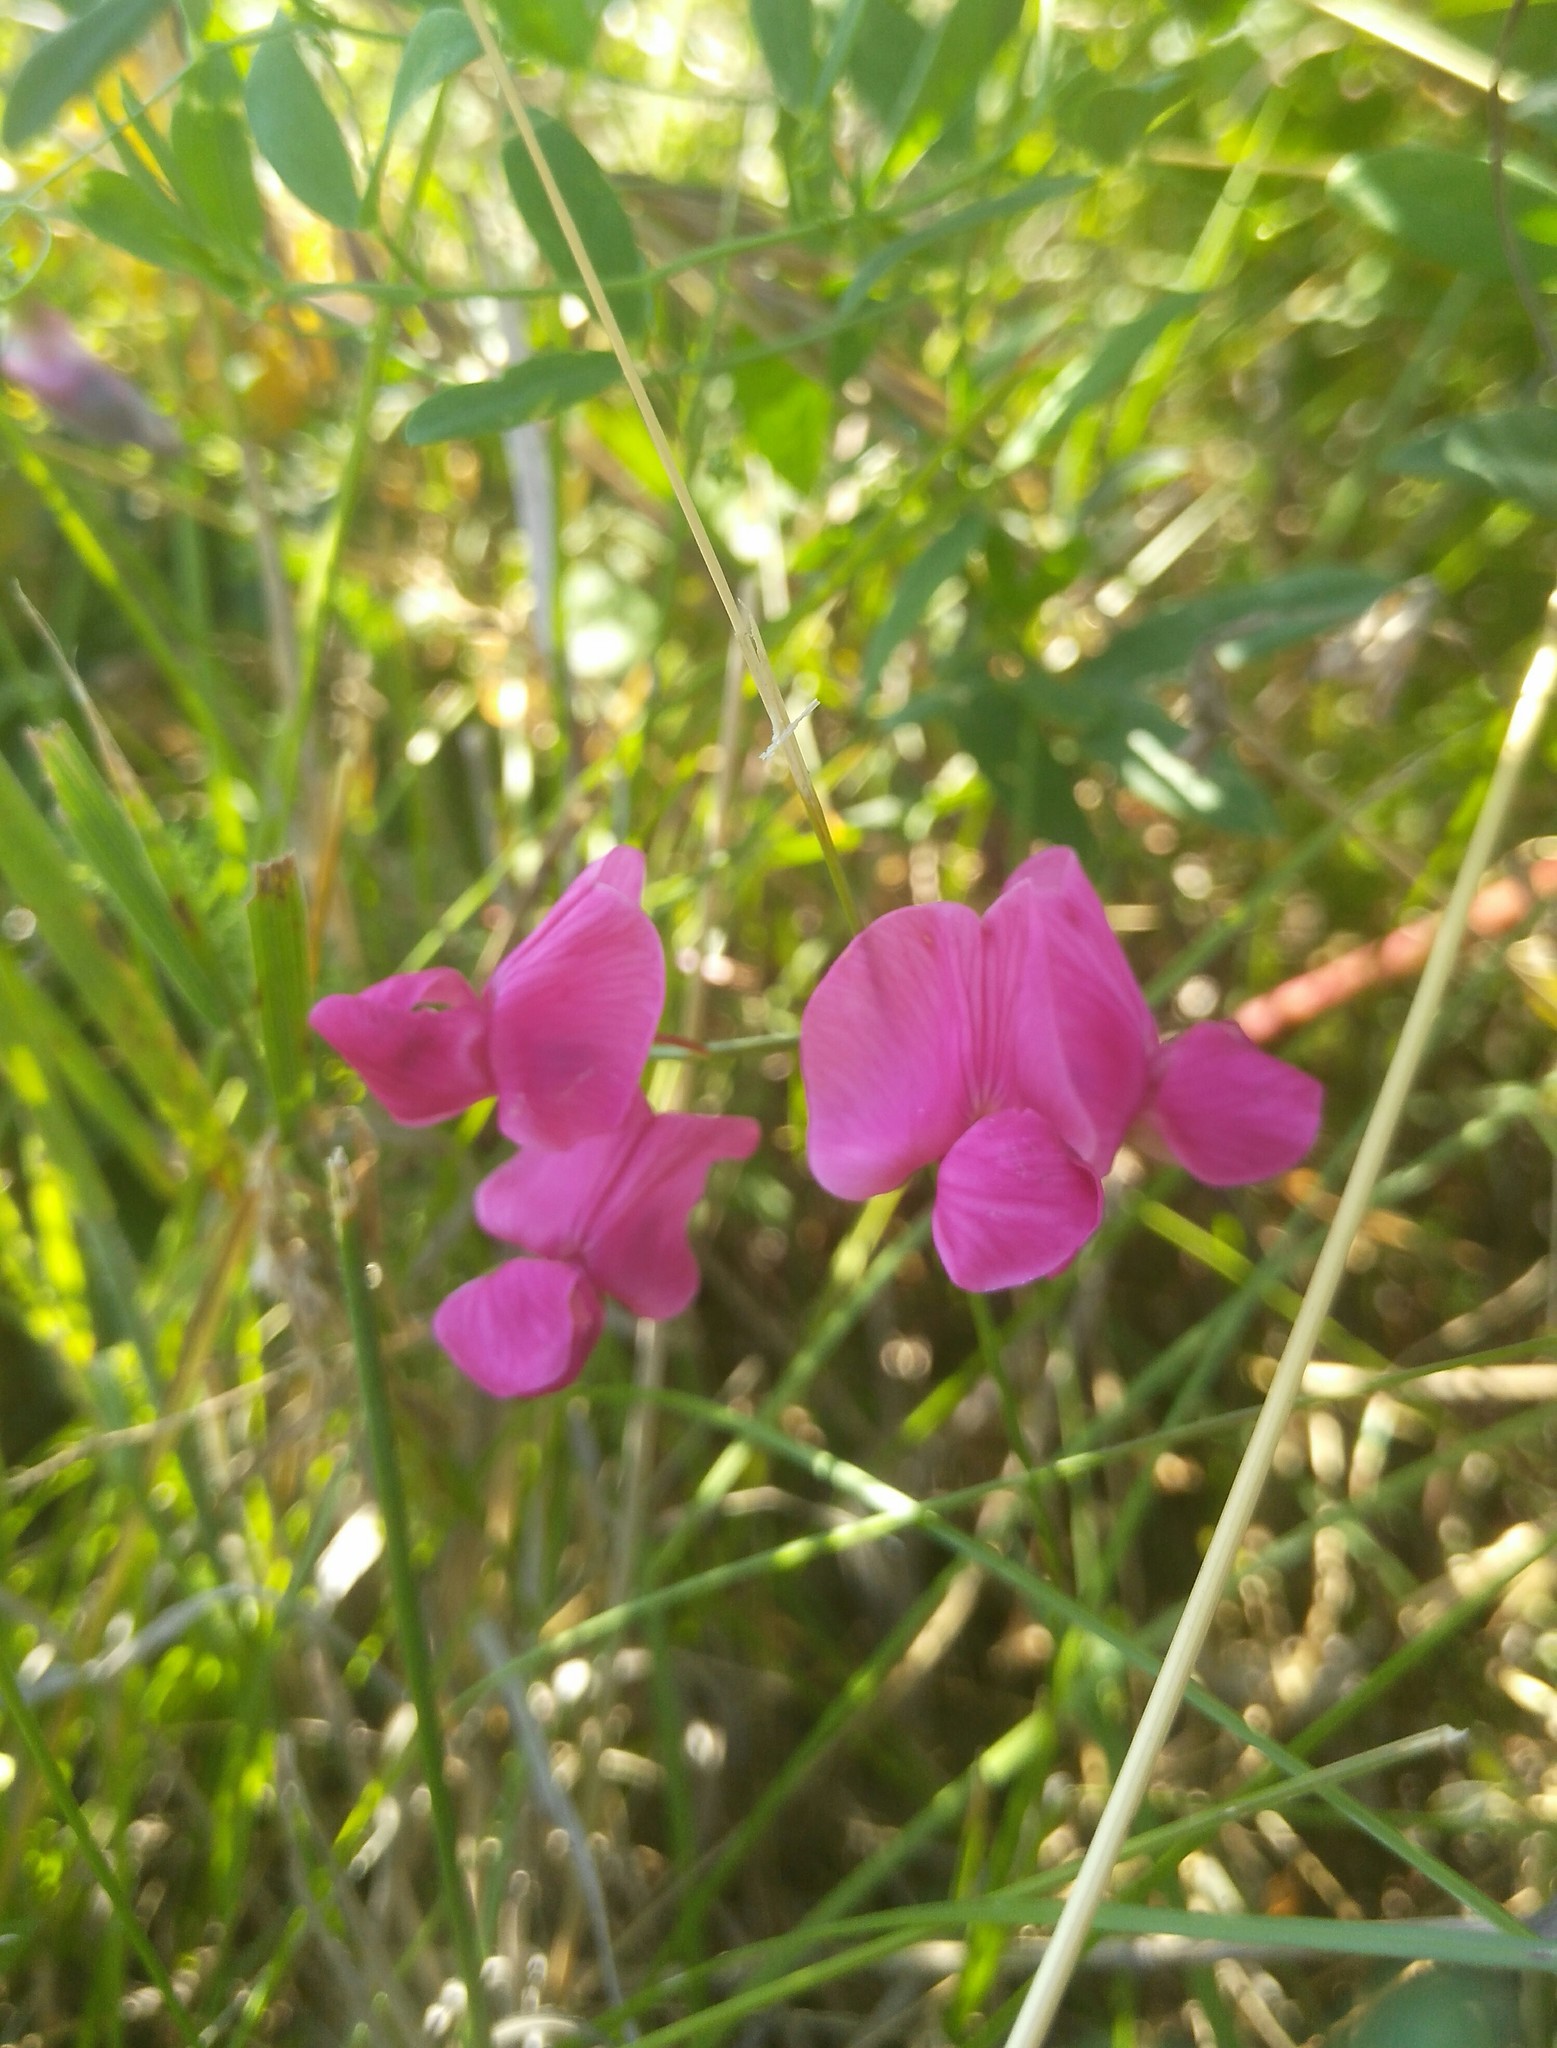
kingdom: Plantae
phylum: Tracheophyta
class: Magnoliopsida
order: Fabales
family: Fabaceae
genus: Lathyrus
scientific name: Lathyrus tuberosus
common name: Tuberous pea
